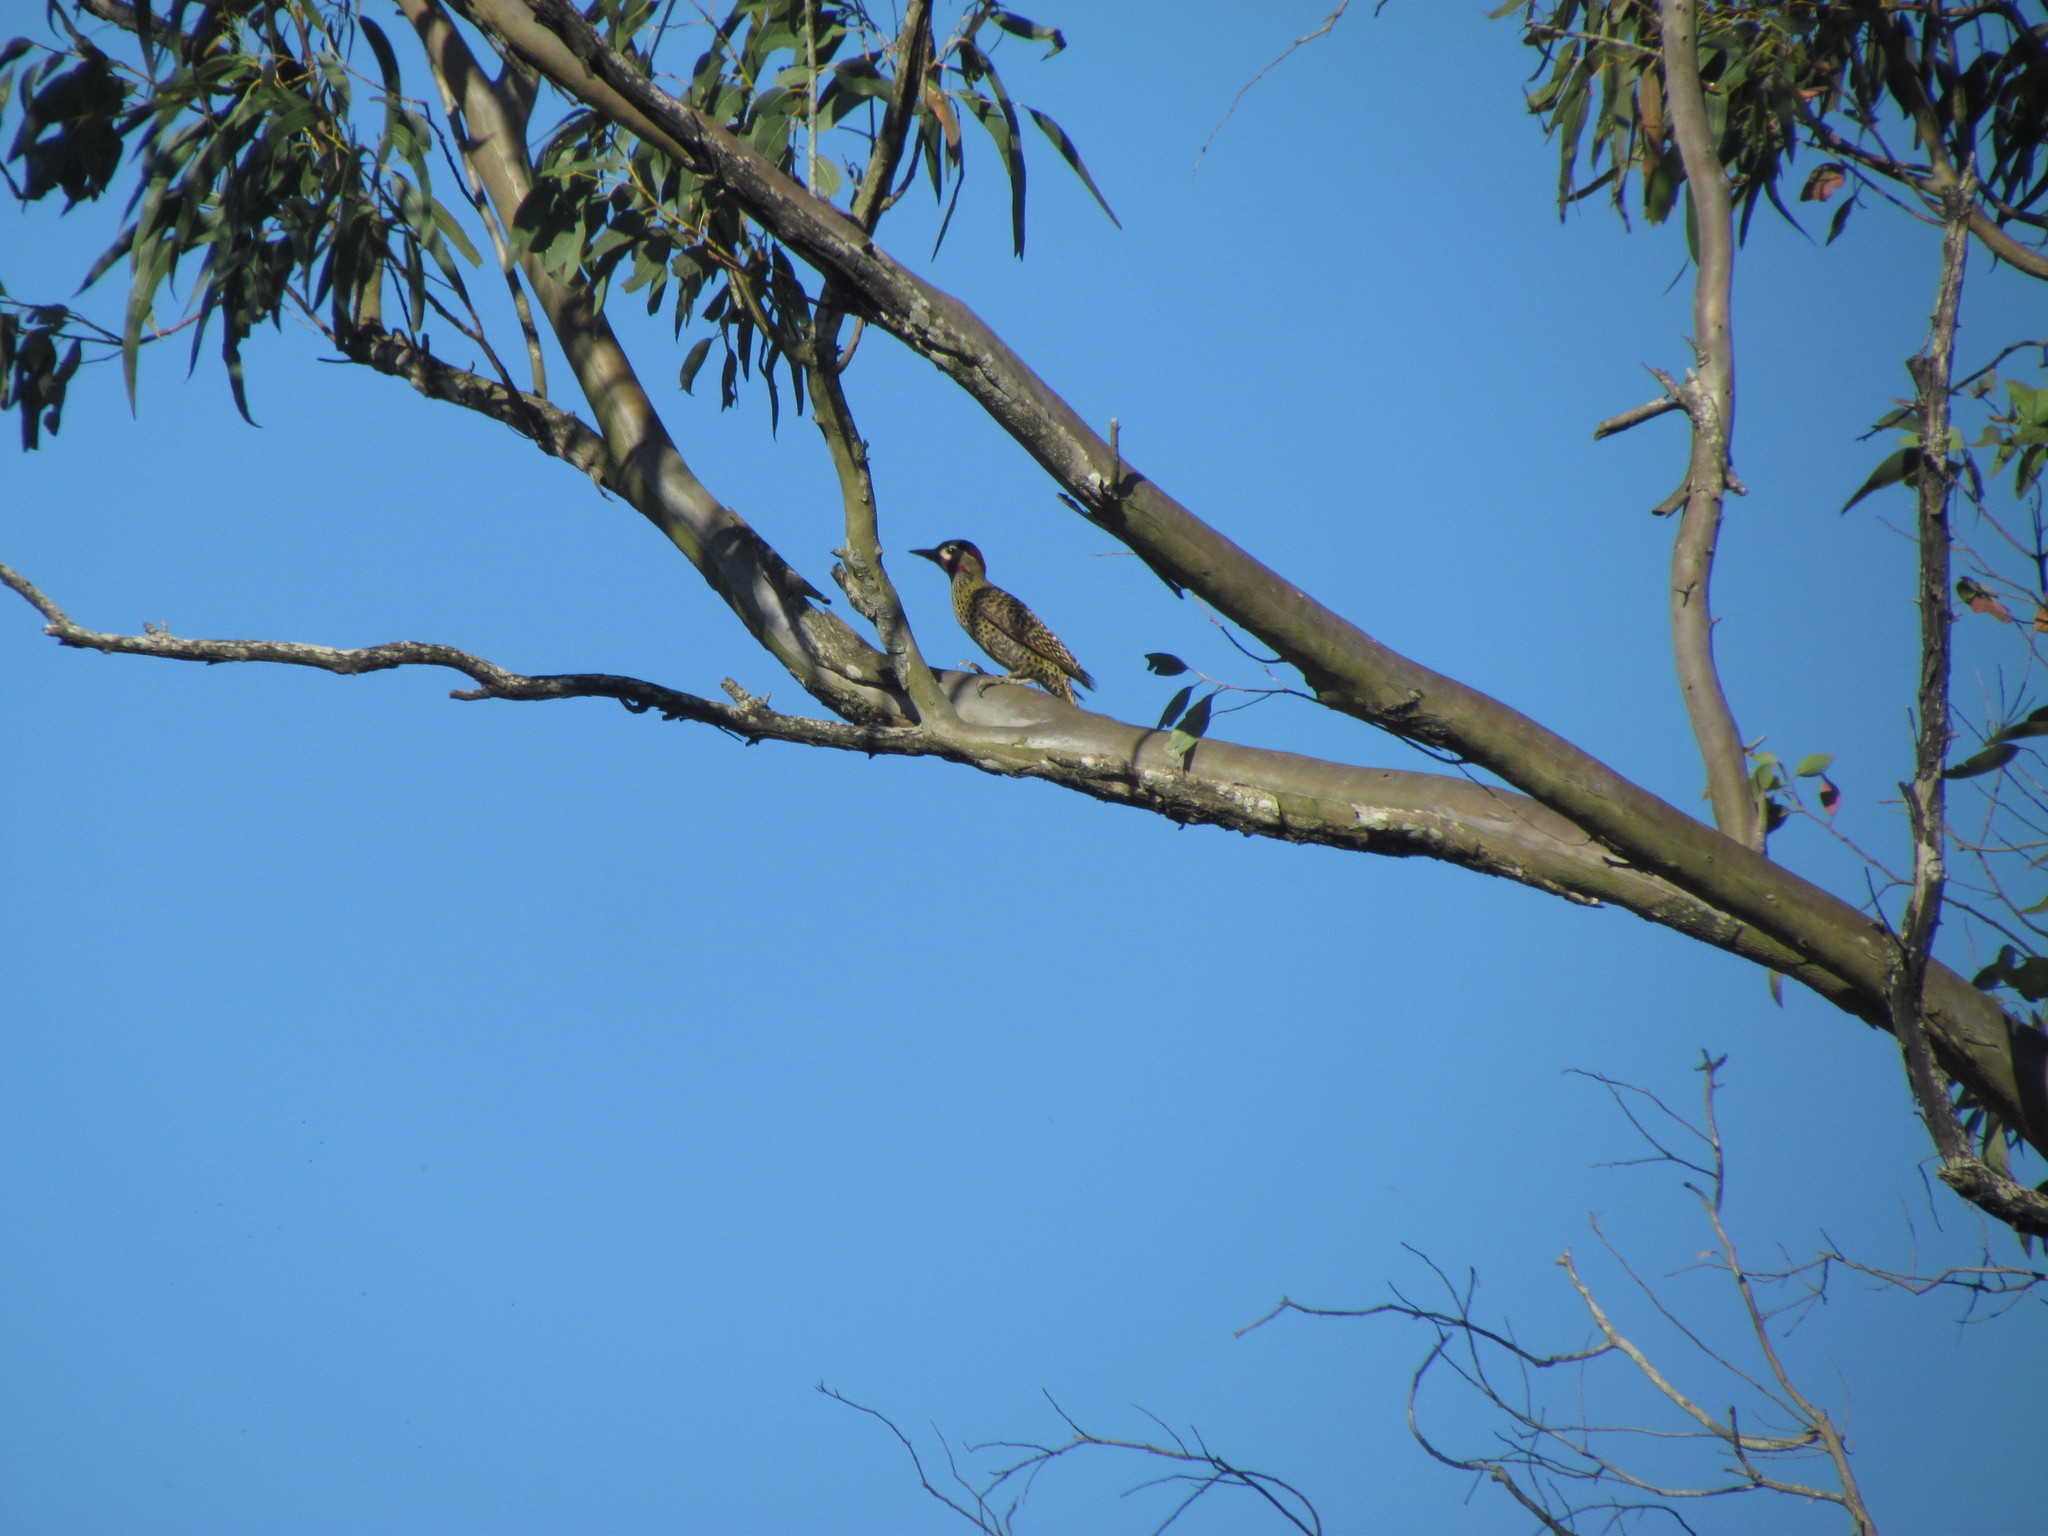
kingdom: Animalia
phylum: Chordata
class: Aves
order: Piciformes
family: Picidae
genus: Colaptes
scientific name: Colaptes melanochloros
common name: Green-barred woodpecker
